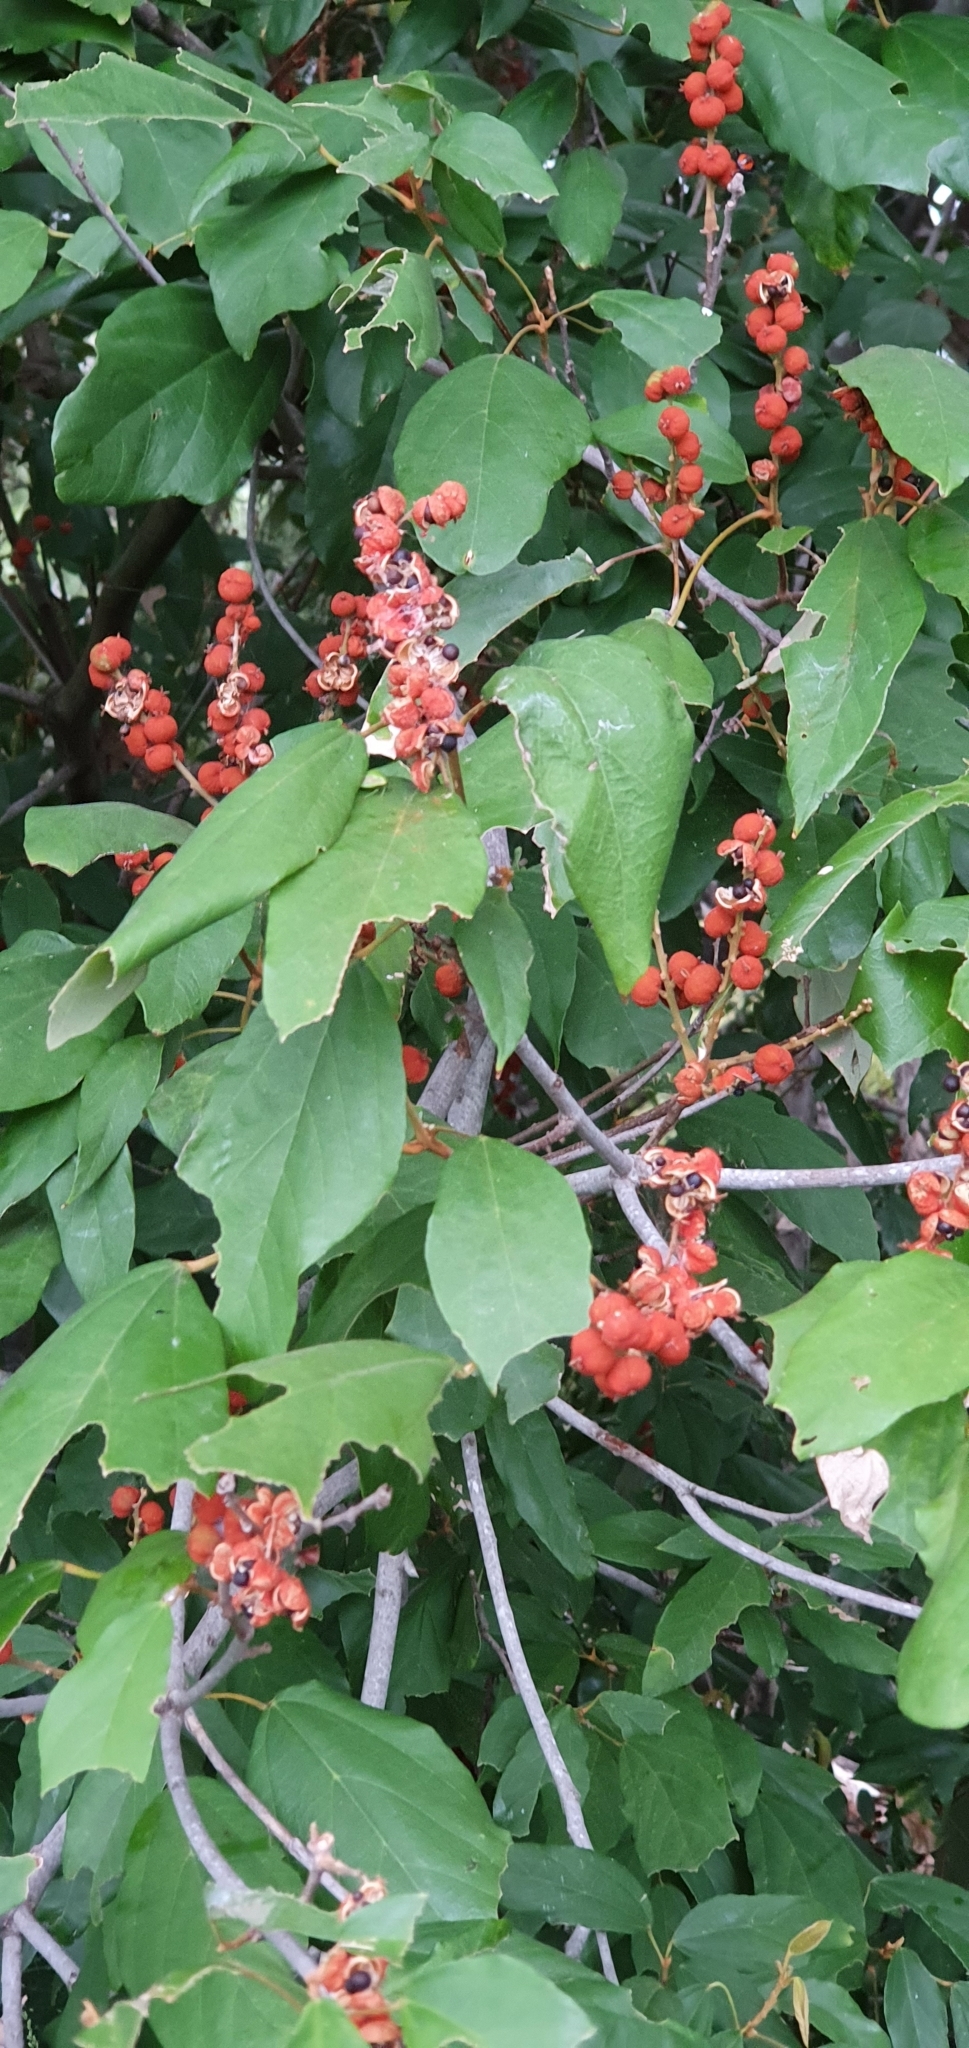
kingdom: Plantae
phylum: Tracheophyta
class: Magnoliopsida
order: Malpighiales
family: Euphorbiaceae
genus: Mallotus
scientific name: Mallotus philippensis
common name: Kamala tree
